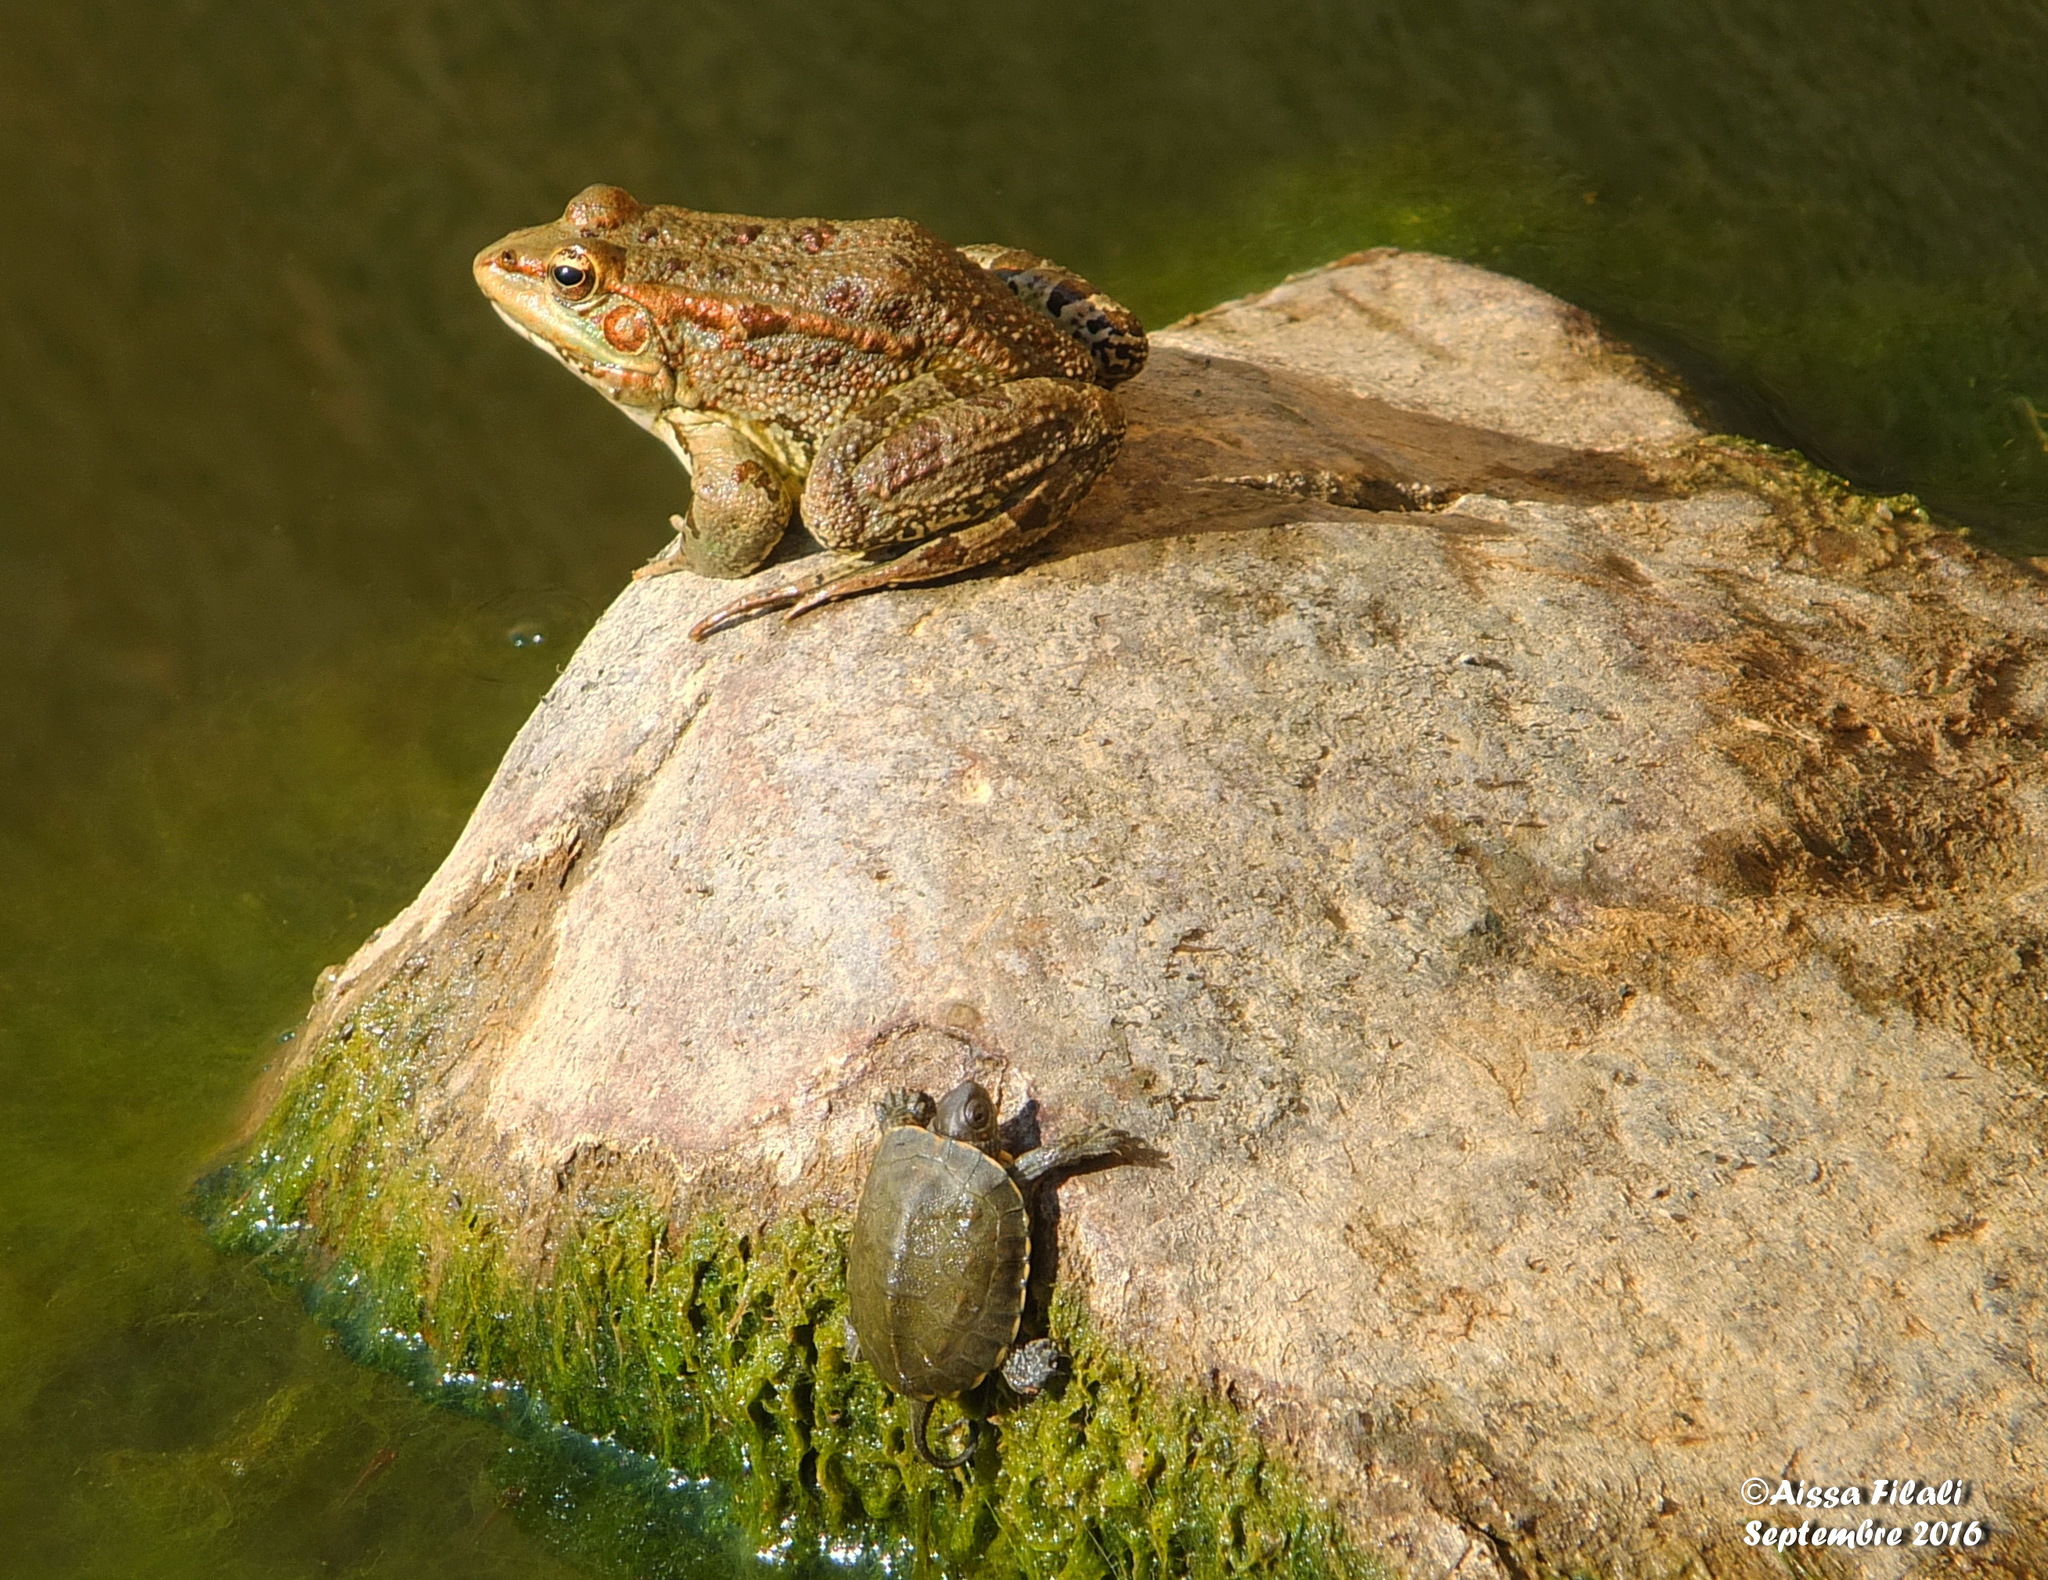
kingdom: Animalia
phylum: Chordata
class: Amphibia
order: Anura
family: Ranidae
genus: Pelophylax
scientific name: Pelophylax saharicus
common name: Sahara frog
